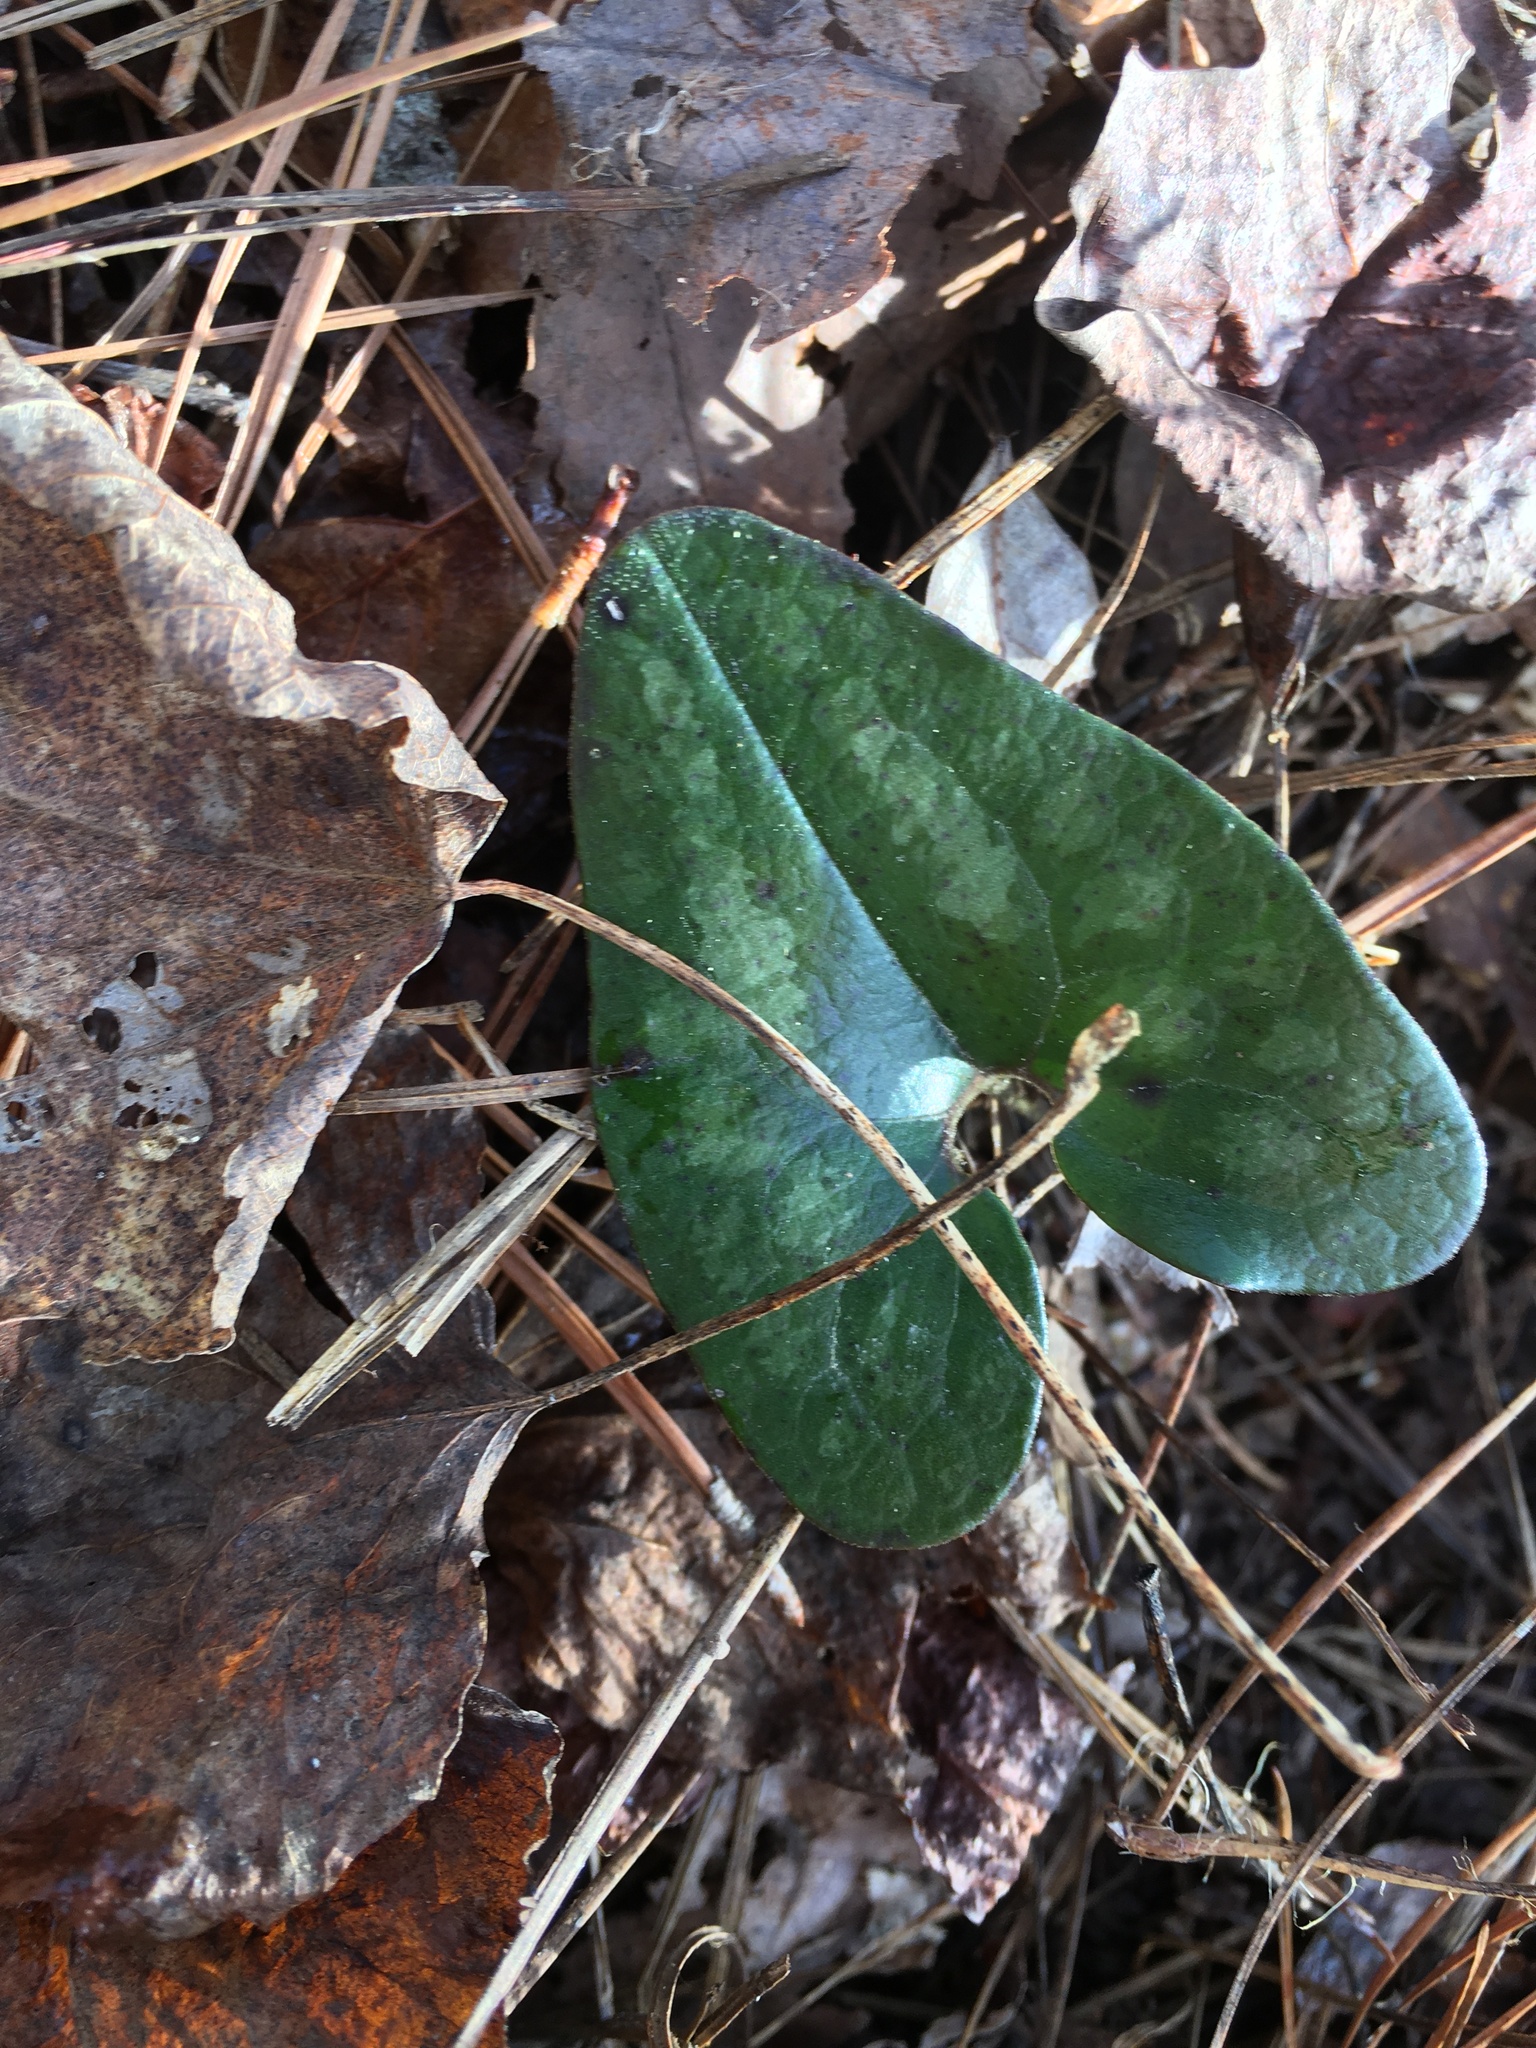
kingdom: Plantae
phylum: Tracheophyta
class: Magnoliopsida
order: Piperales
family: Aristolochiaceae
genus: Hexastylis
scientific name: Hexastylis arifolia
